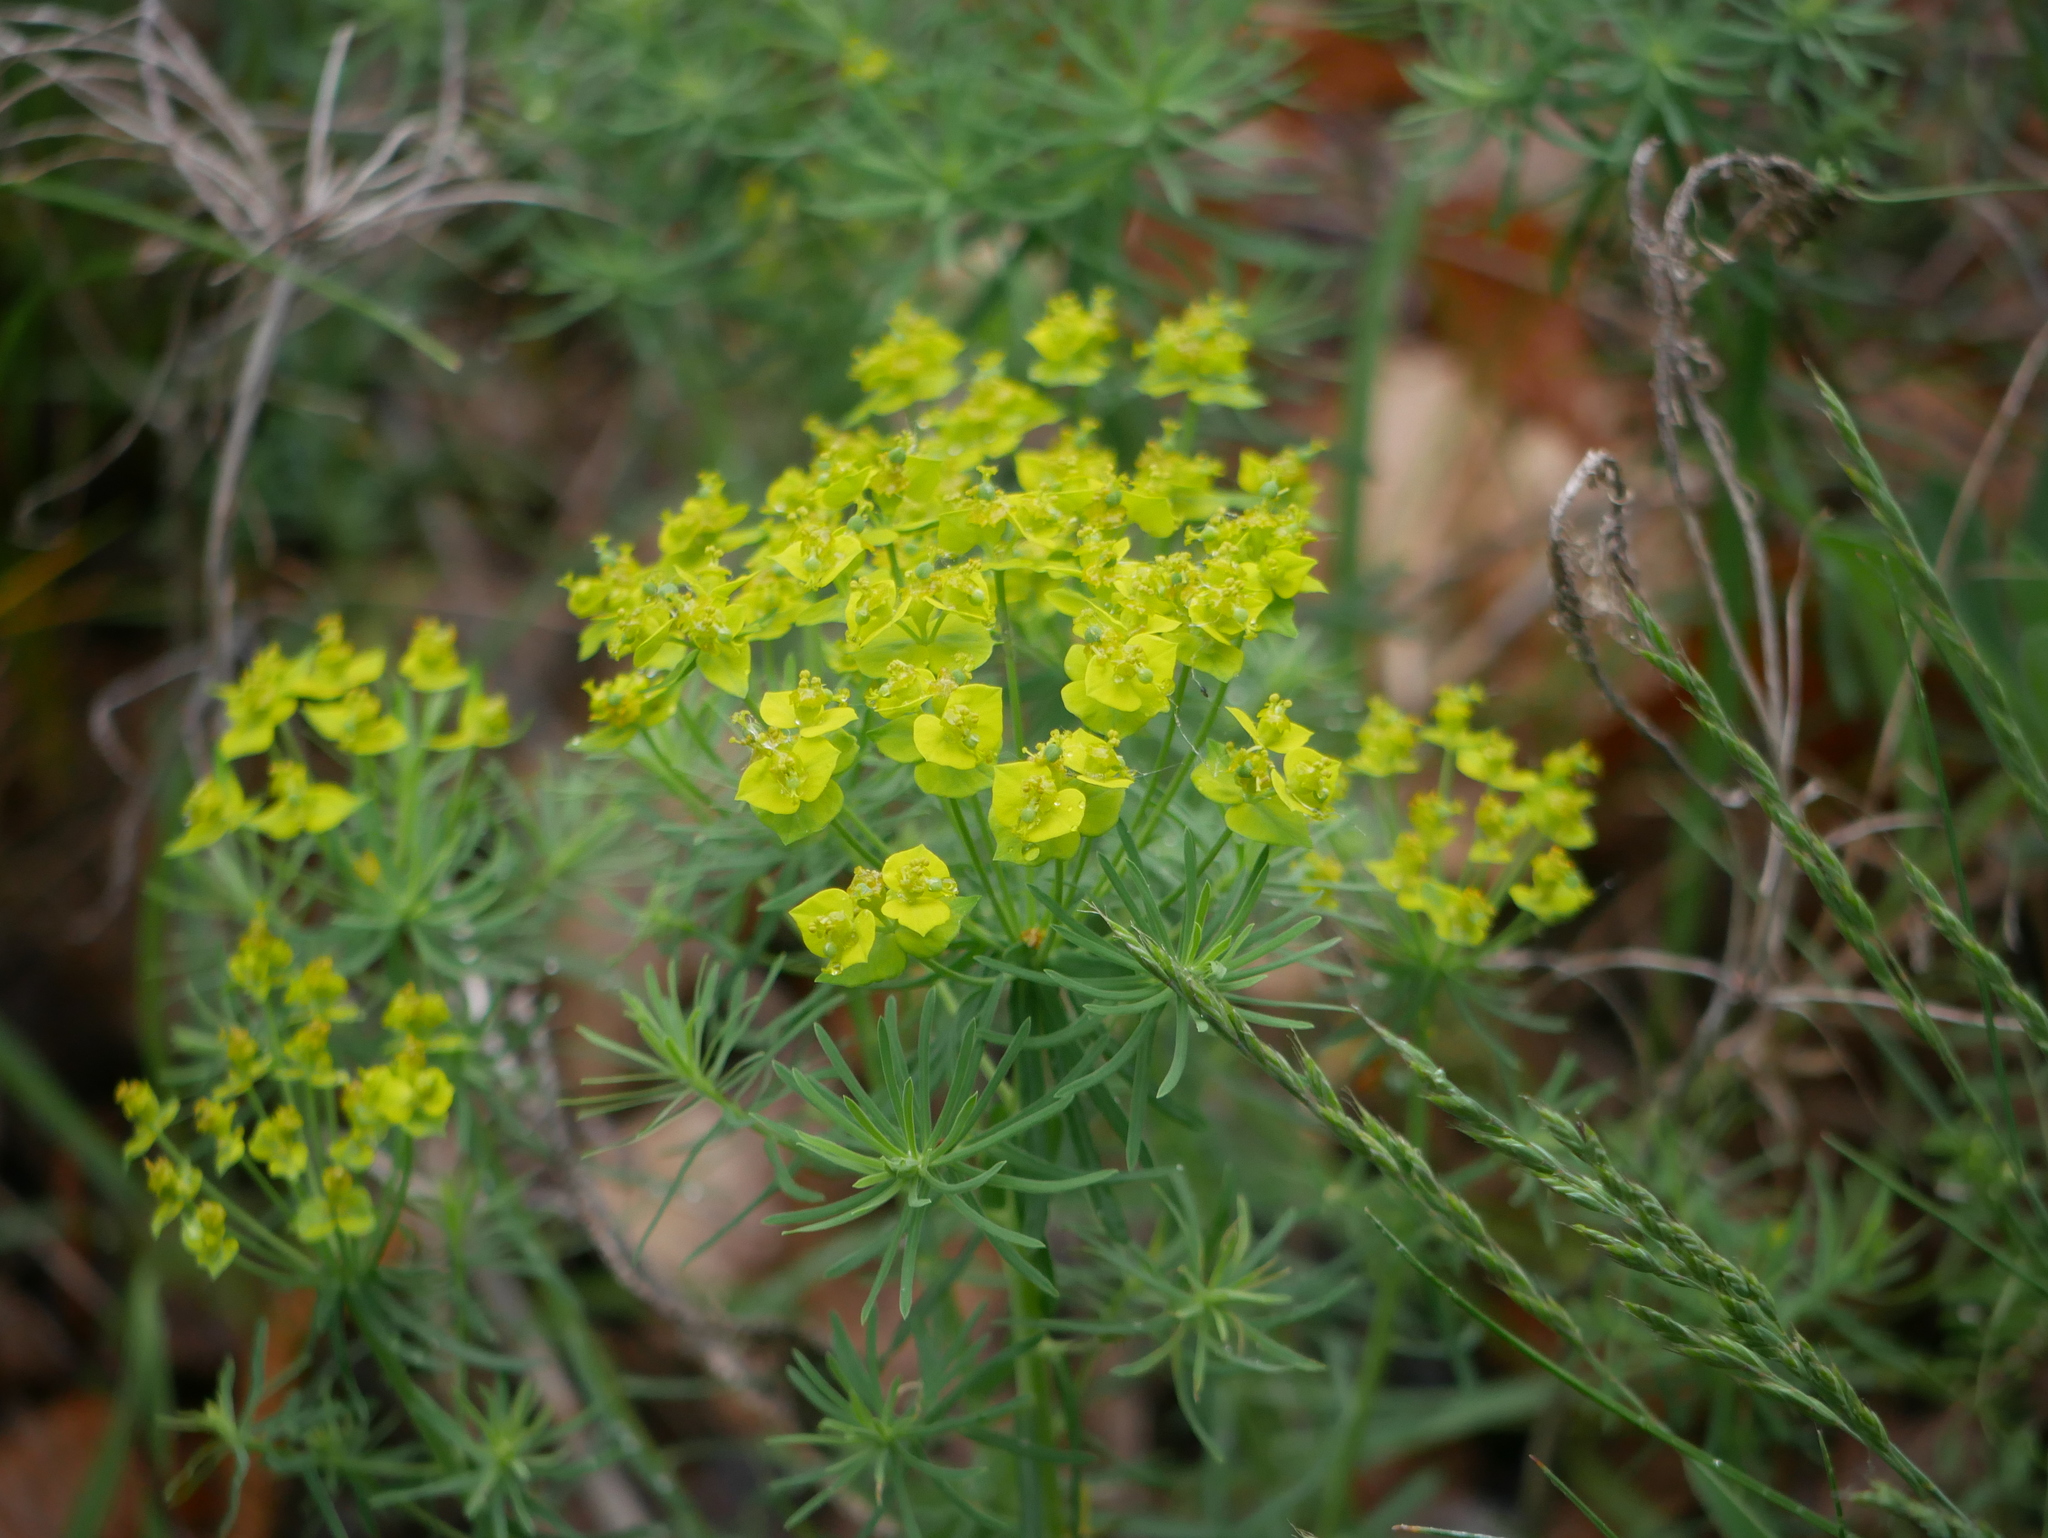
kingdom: Plantae
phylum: Tracheophyta
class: Magnoliopsida
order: Malpighiales
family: Euphorbiaceae
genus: Euphorbia
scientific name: Euphorbia cyparissias
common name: Cypress spurge
